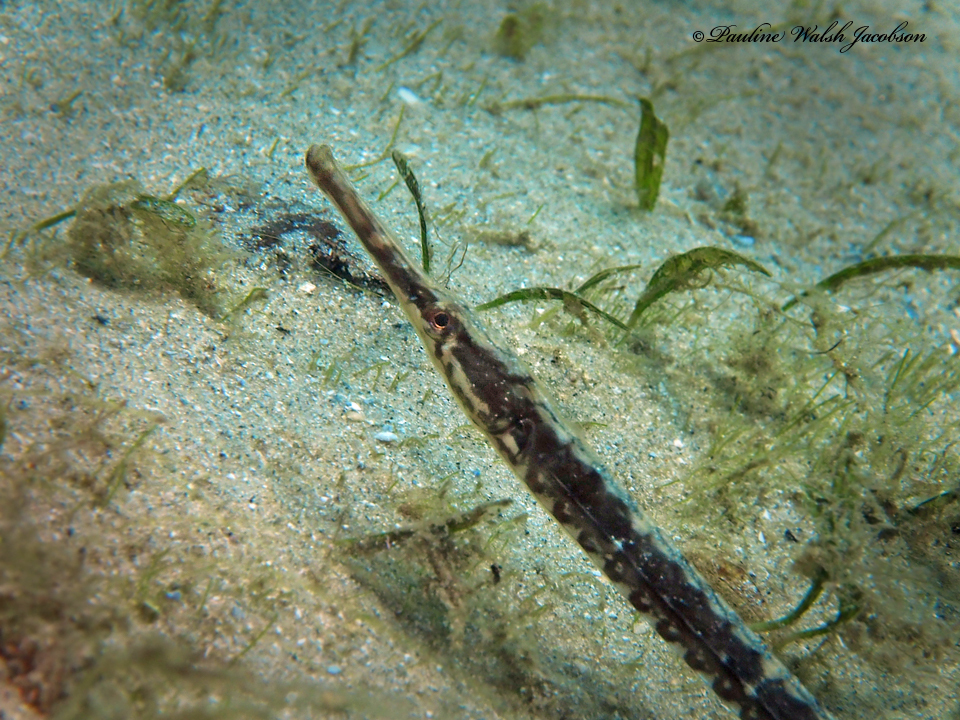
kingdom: Animalia
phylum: Chordata
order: Syngnathiformes
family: Syngnathidae
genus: Syngnathus
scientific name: Syngnathus louisianae
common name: Chain pipefish
